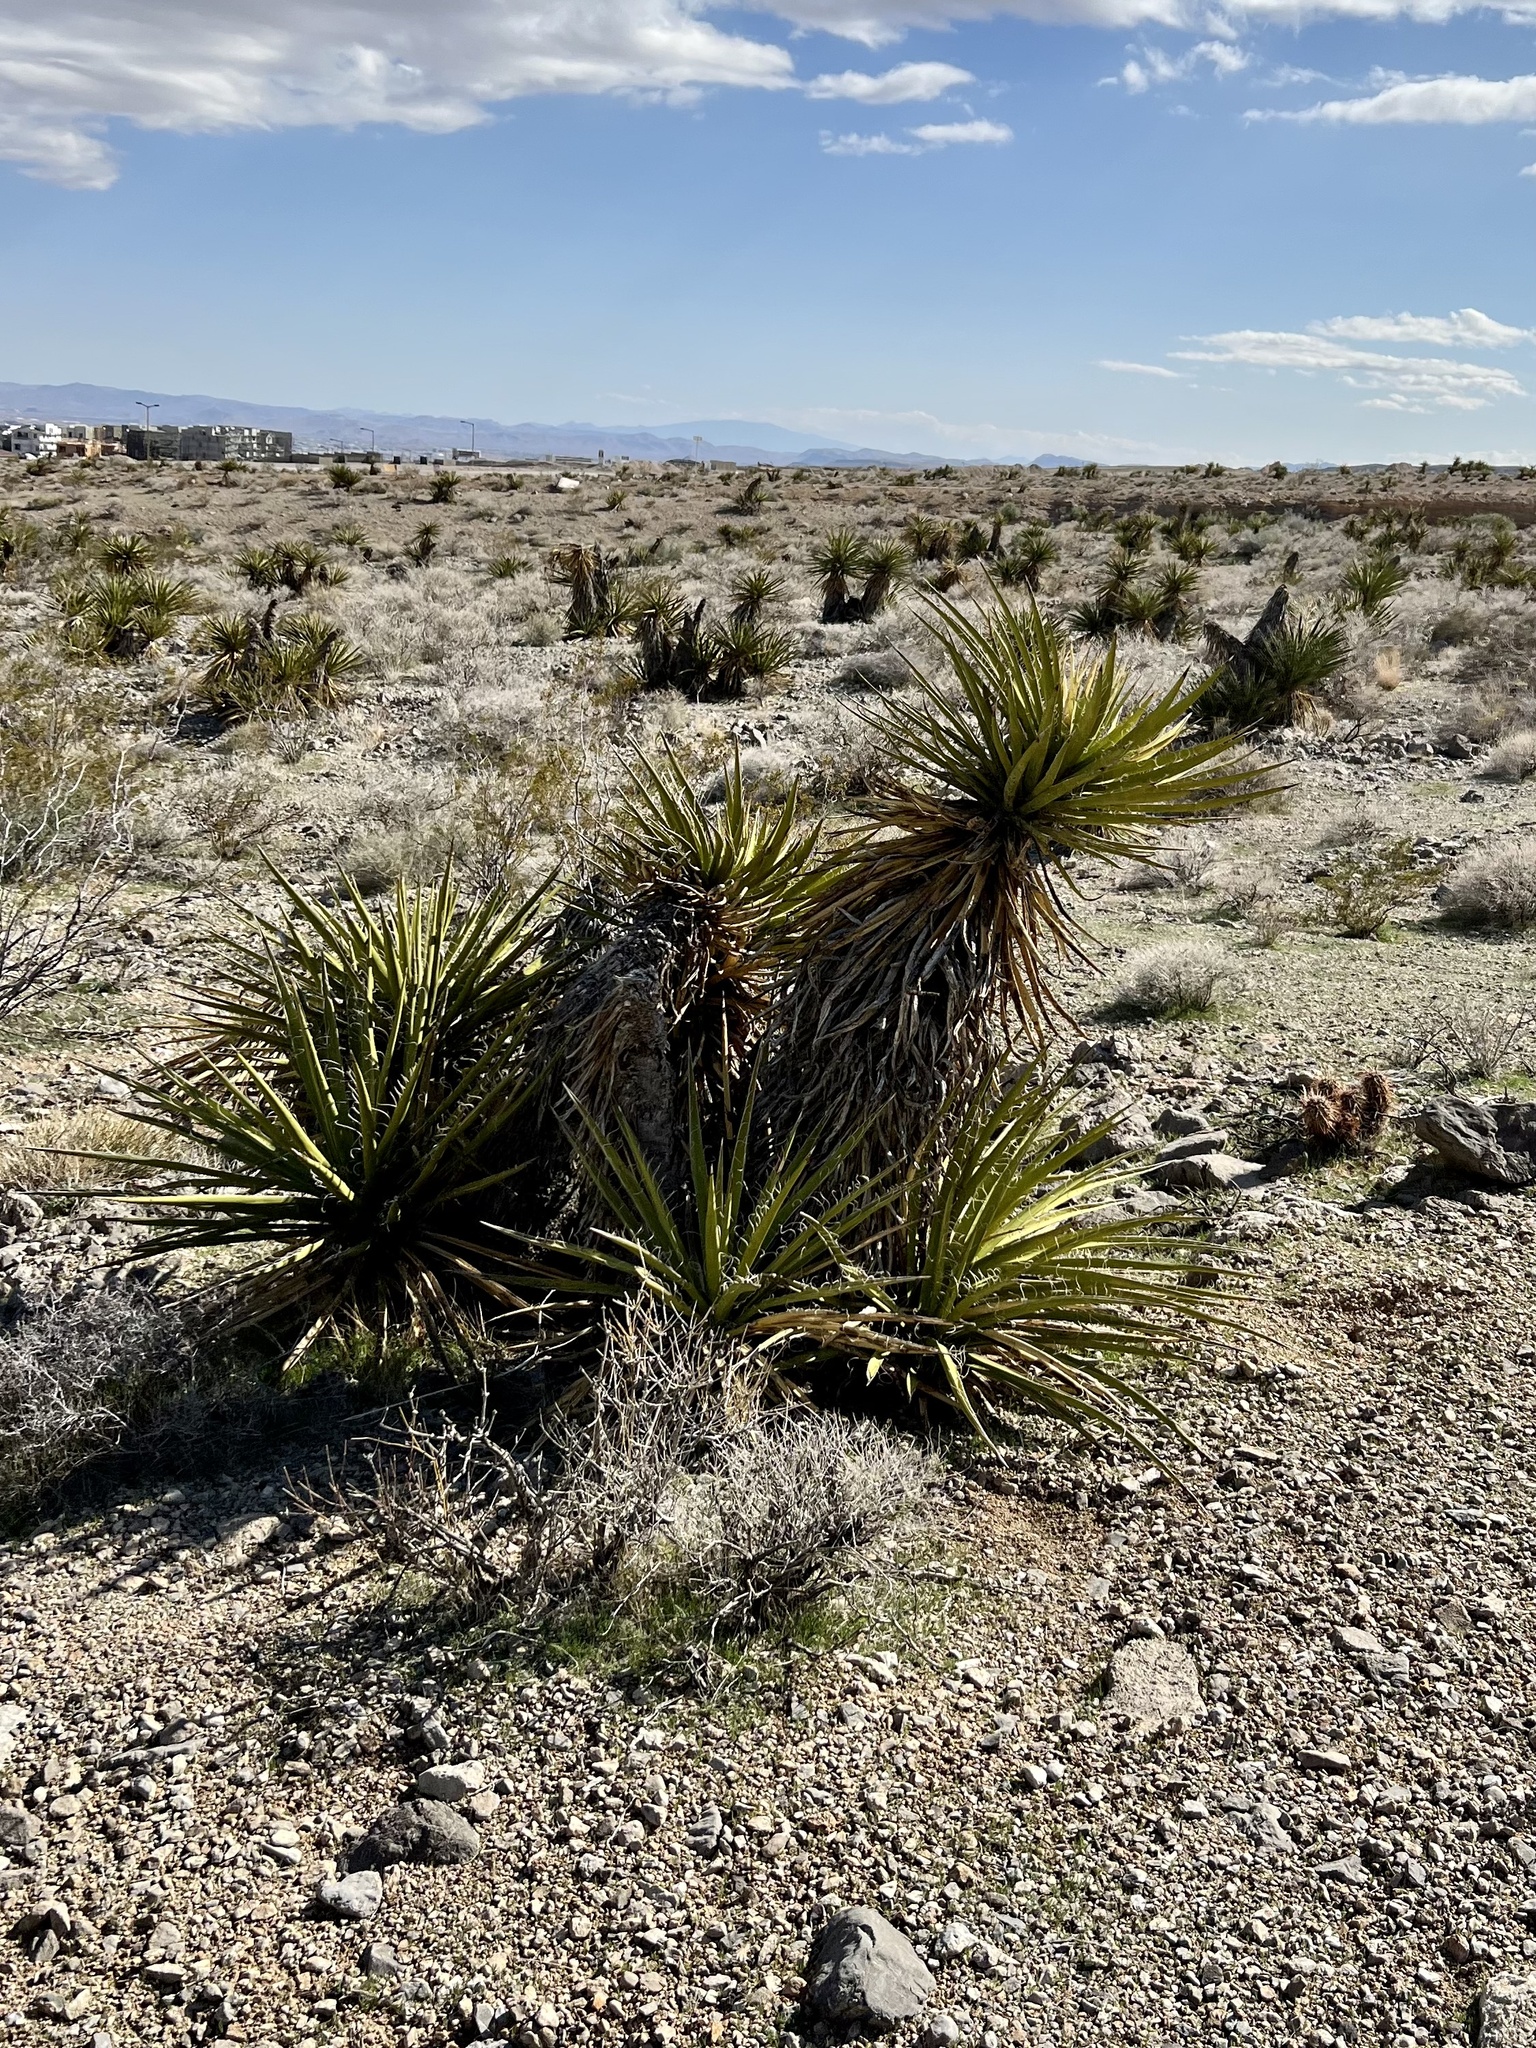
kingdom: Plantae
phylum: Tracheophyta
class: Liliopsida
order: Asparagales
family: Asparagaceae
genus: Yucca
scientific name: Yucca schidigera
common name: Mojave yucca
